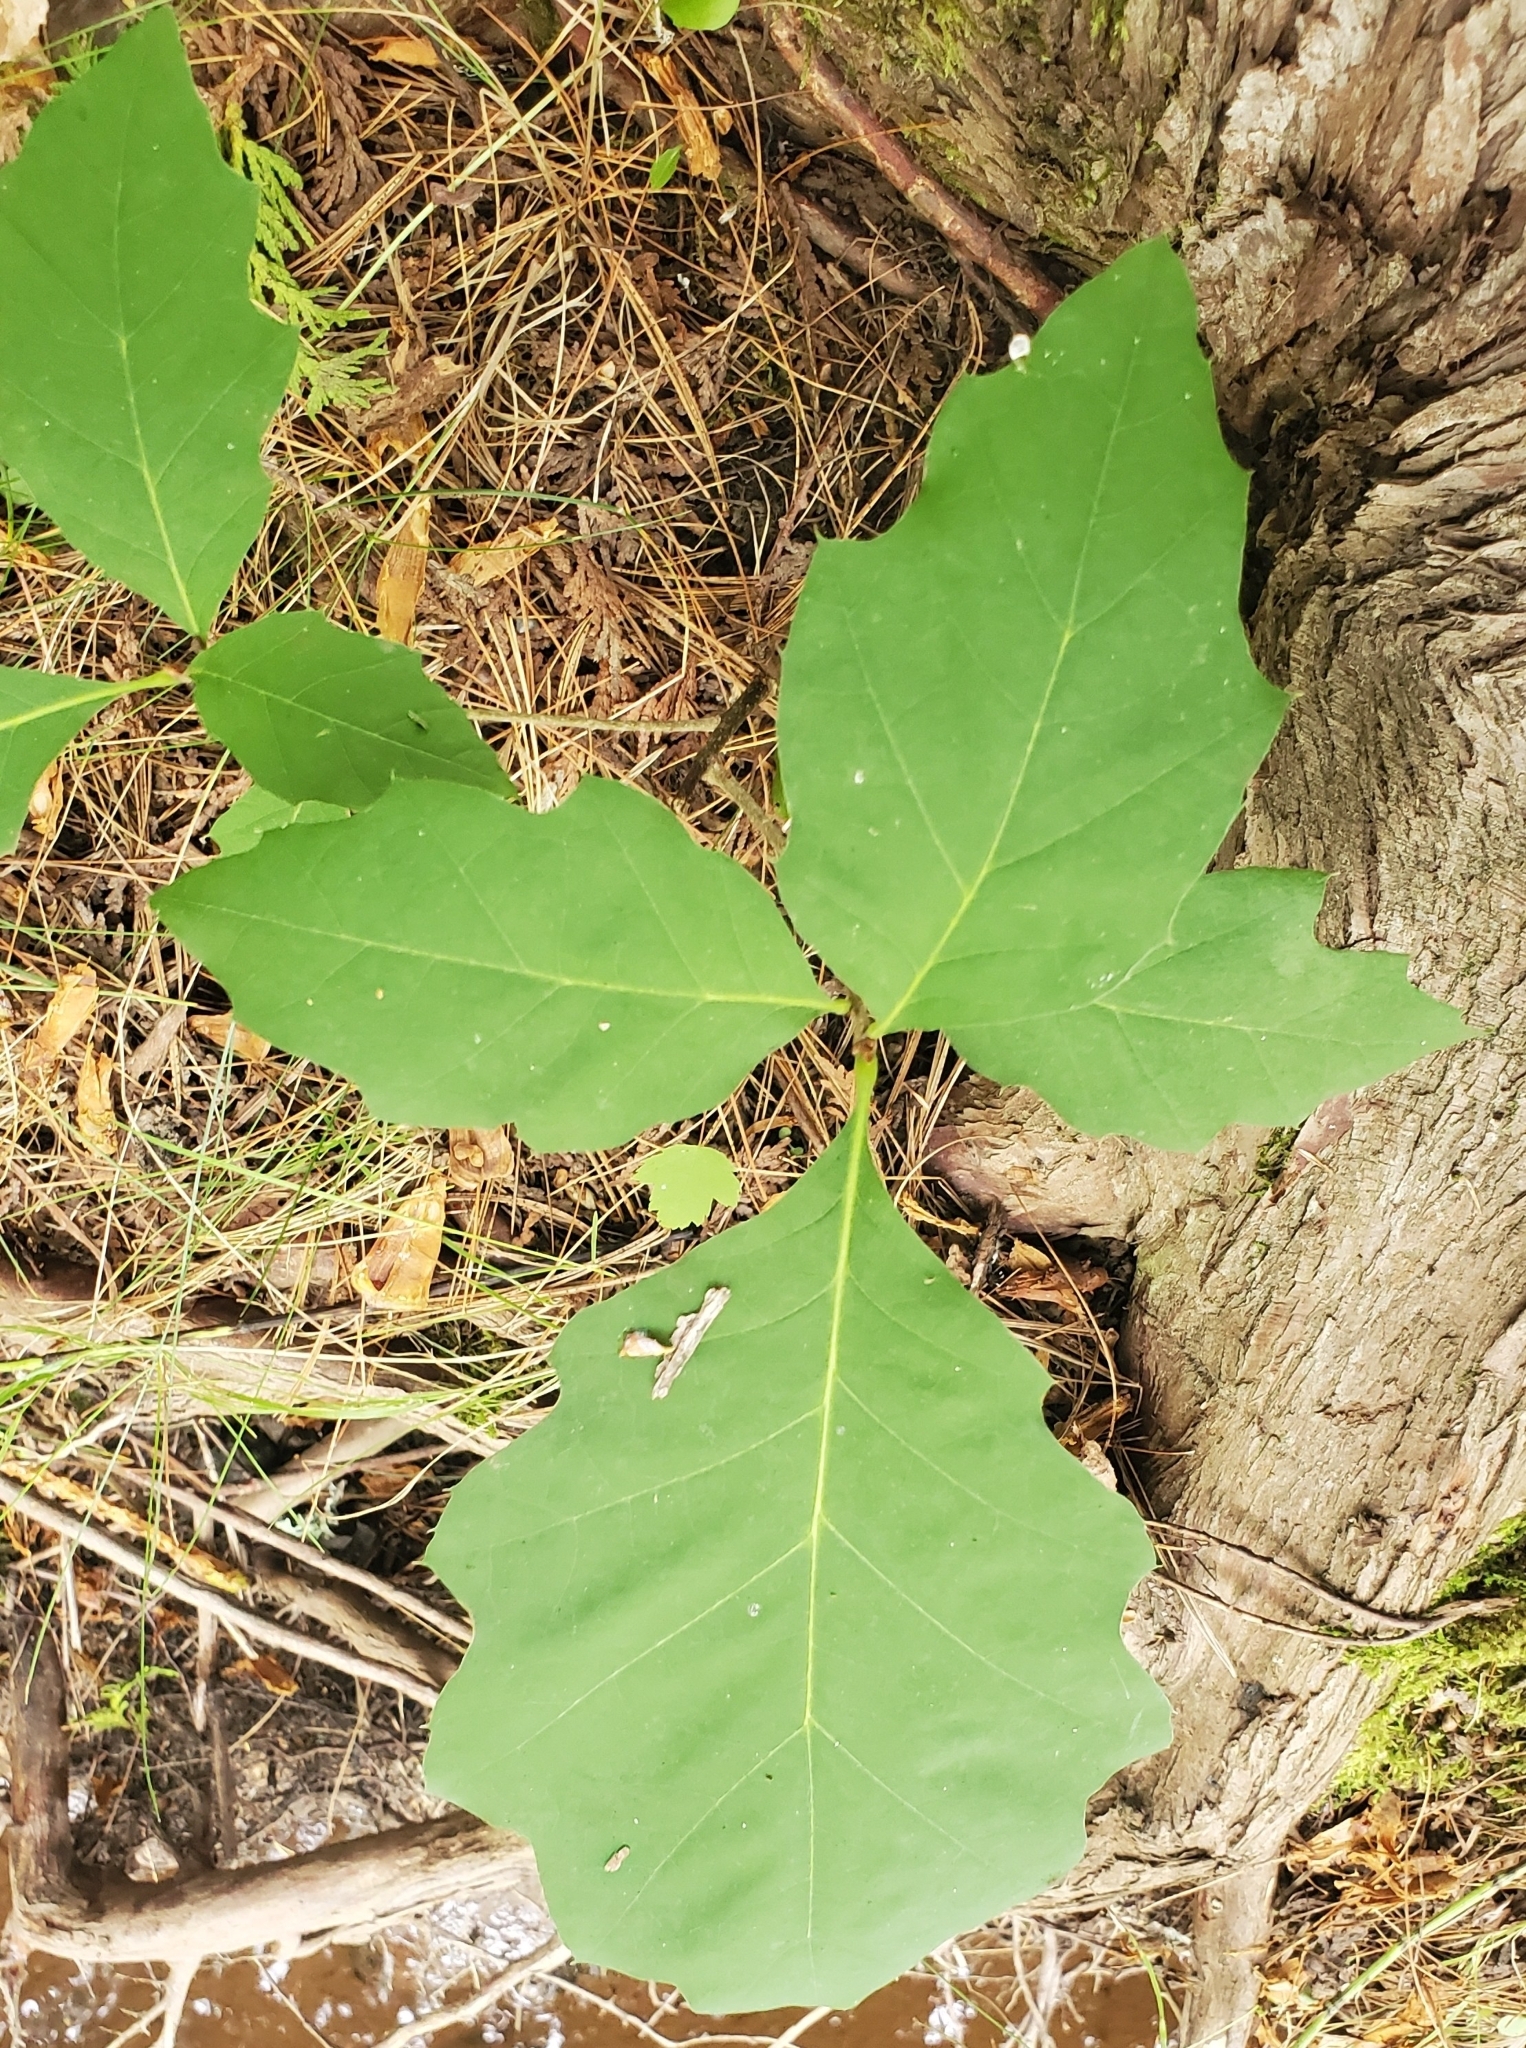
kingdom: Plantae
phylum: Tracheophyta
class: Magnoliopsida
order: Fagales
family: Fagaceae
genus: Quercus
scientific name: Quercus rubra
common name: Red oak
